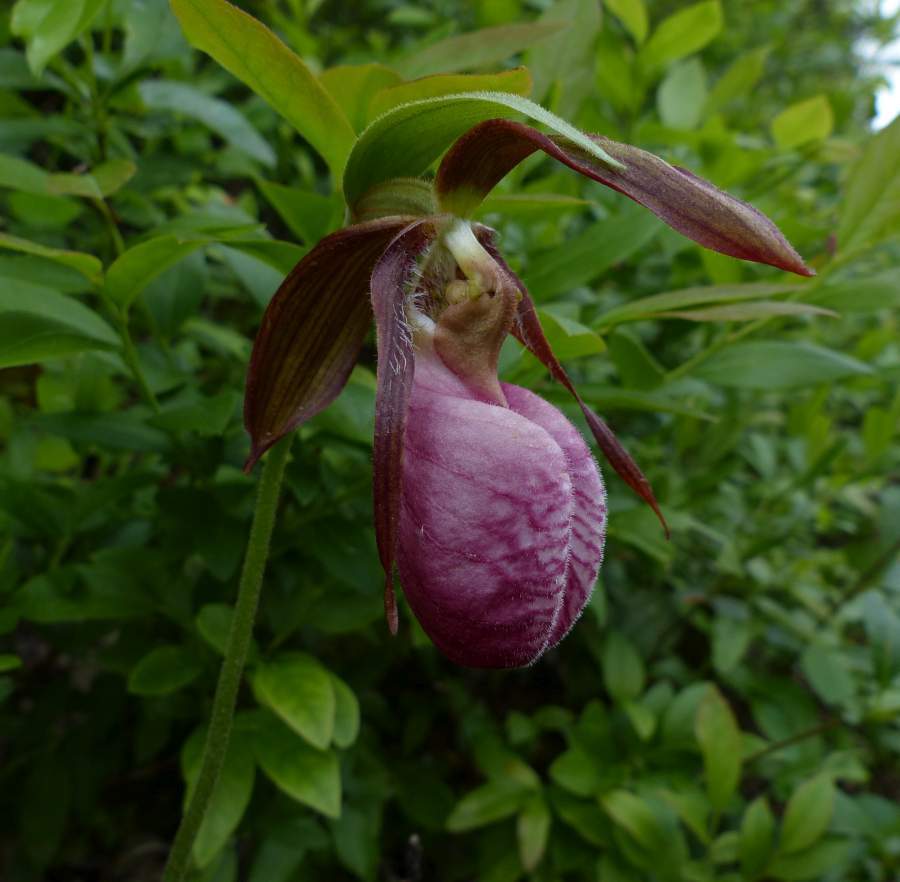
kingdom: Plantae
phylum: Tracheophyta
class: Liliopsida
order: Asparagales
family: Orchidaceae
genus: Cypripedium
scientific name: Cypripedium acaule
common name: Pink lady's-slipper
